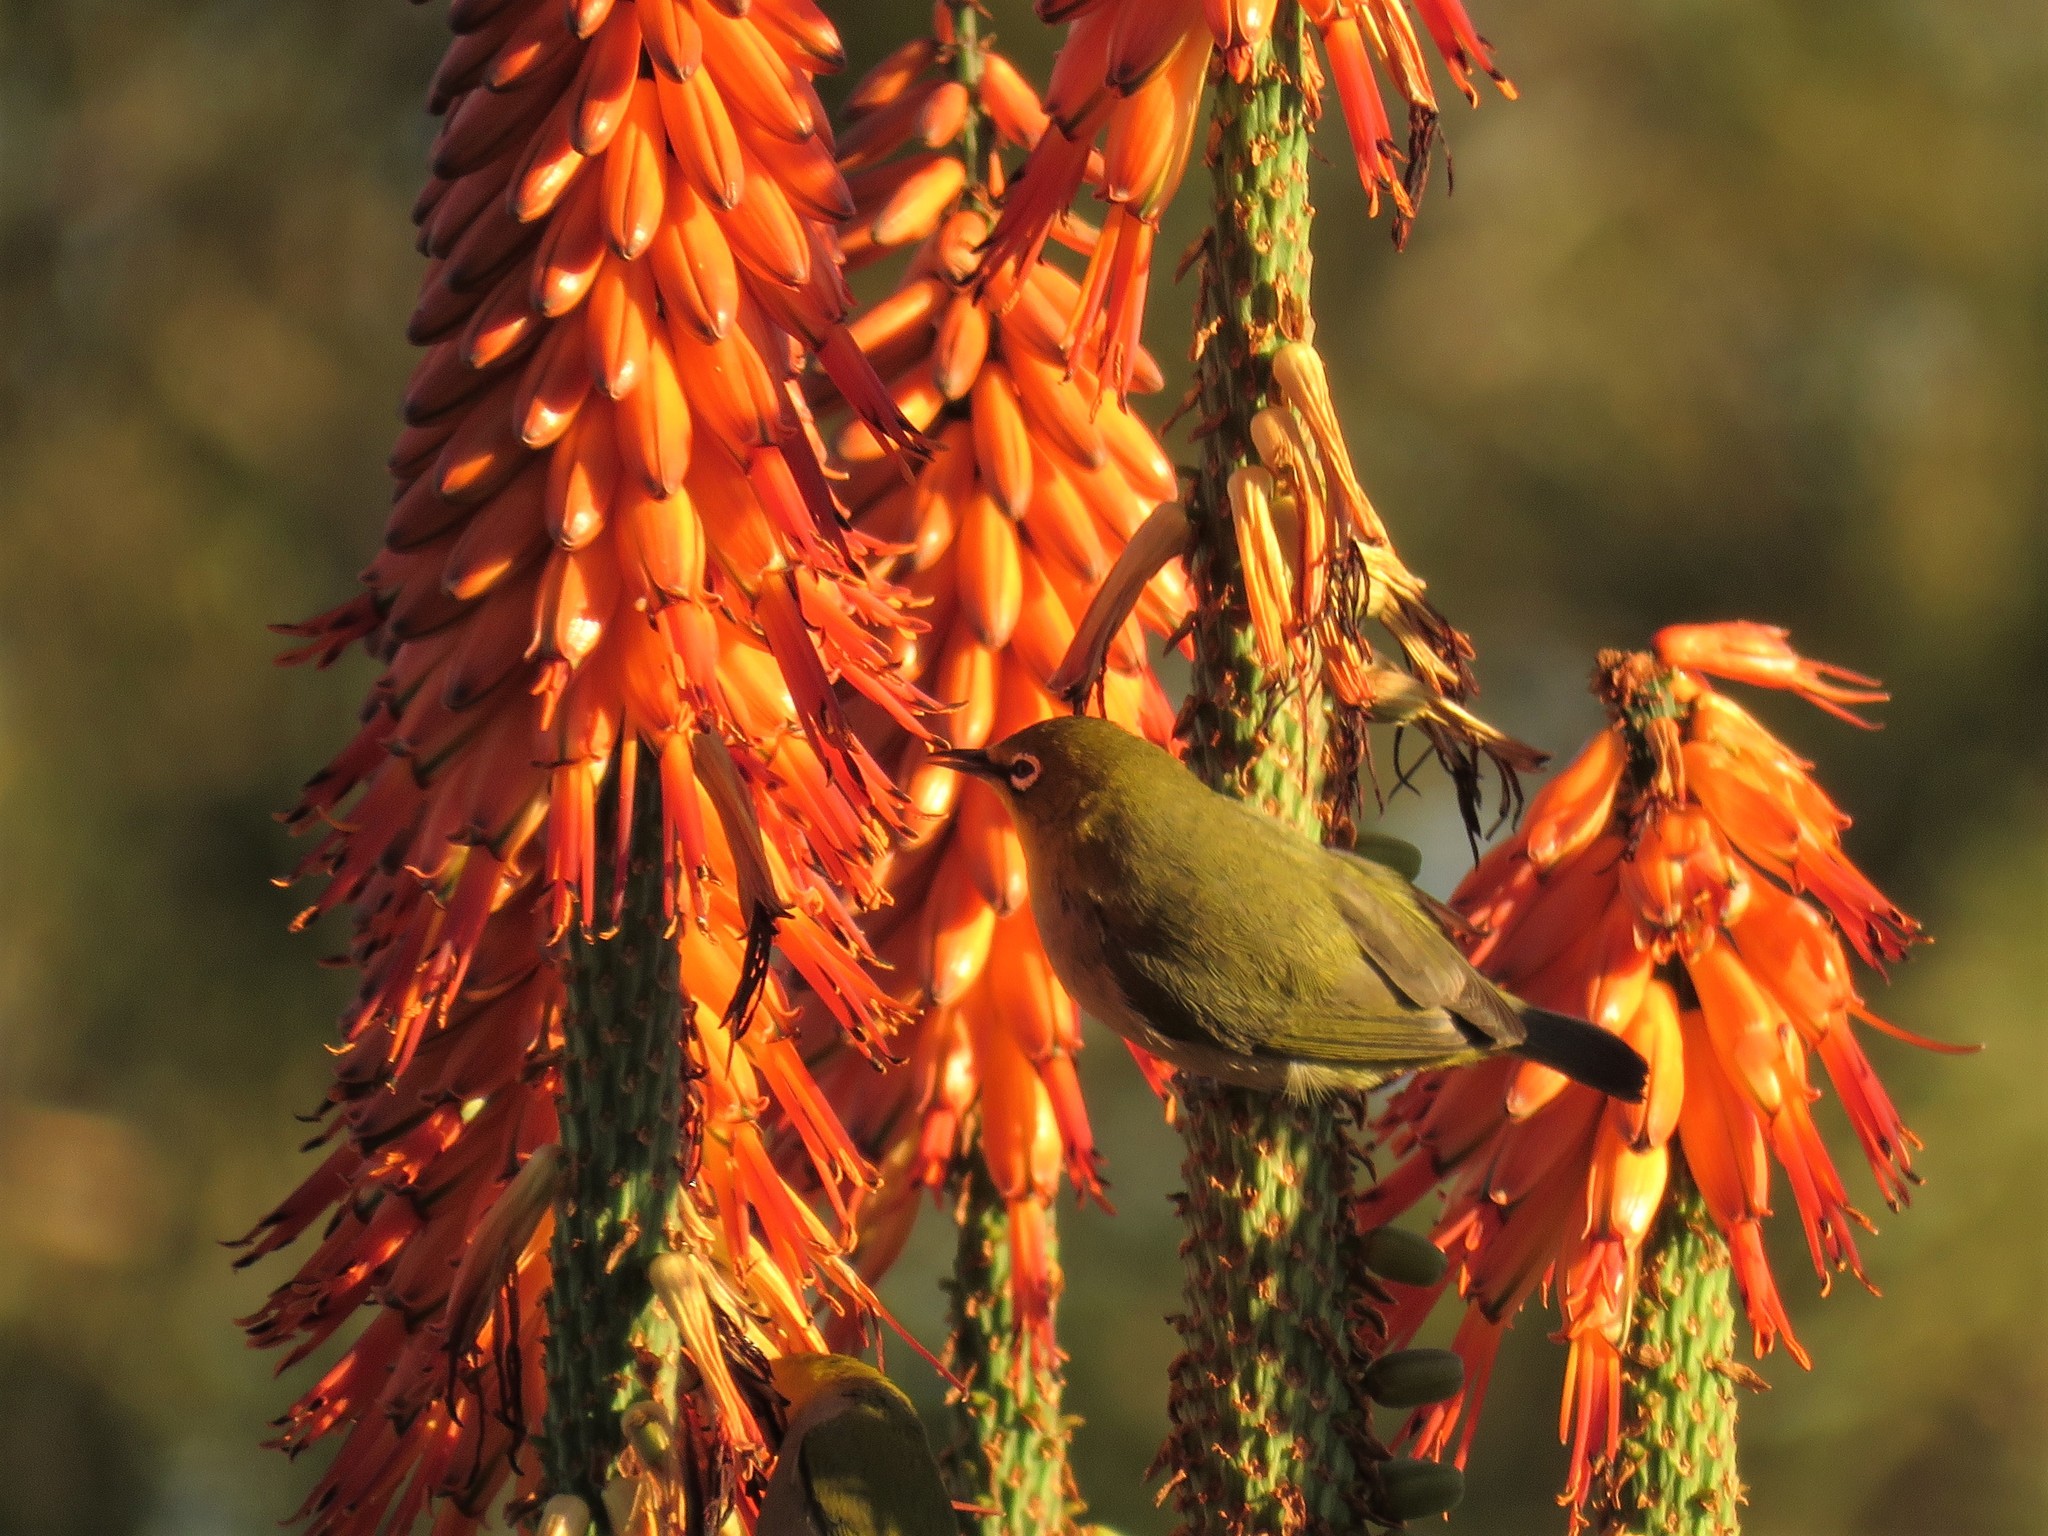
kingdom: Animalia
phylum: Chordata
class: Aves
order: Passeriformes
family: Zosteropidae
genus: Zosterops
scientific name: Zosterops virens
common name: Cape white-eye
